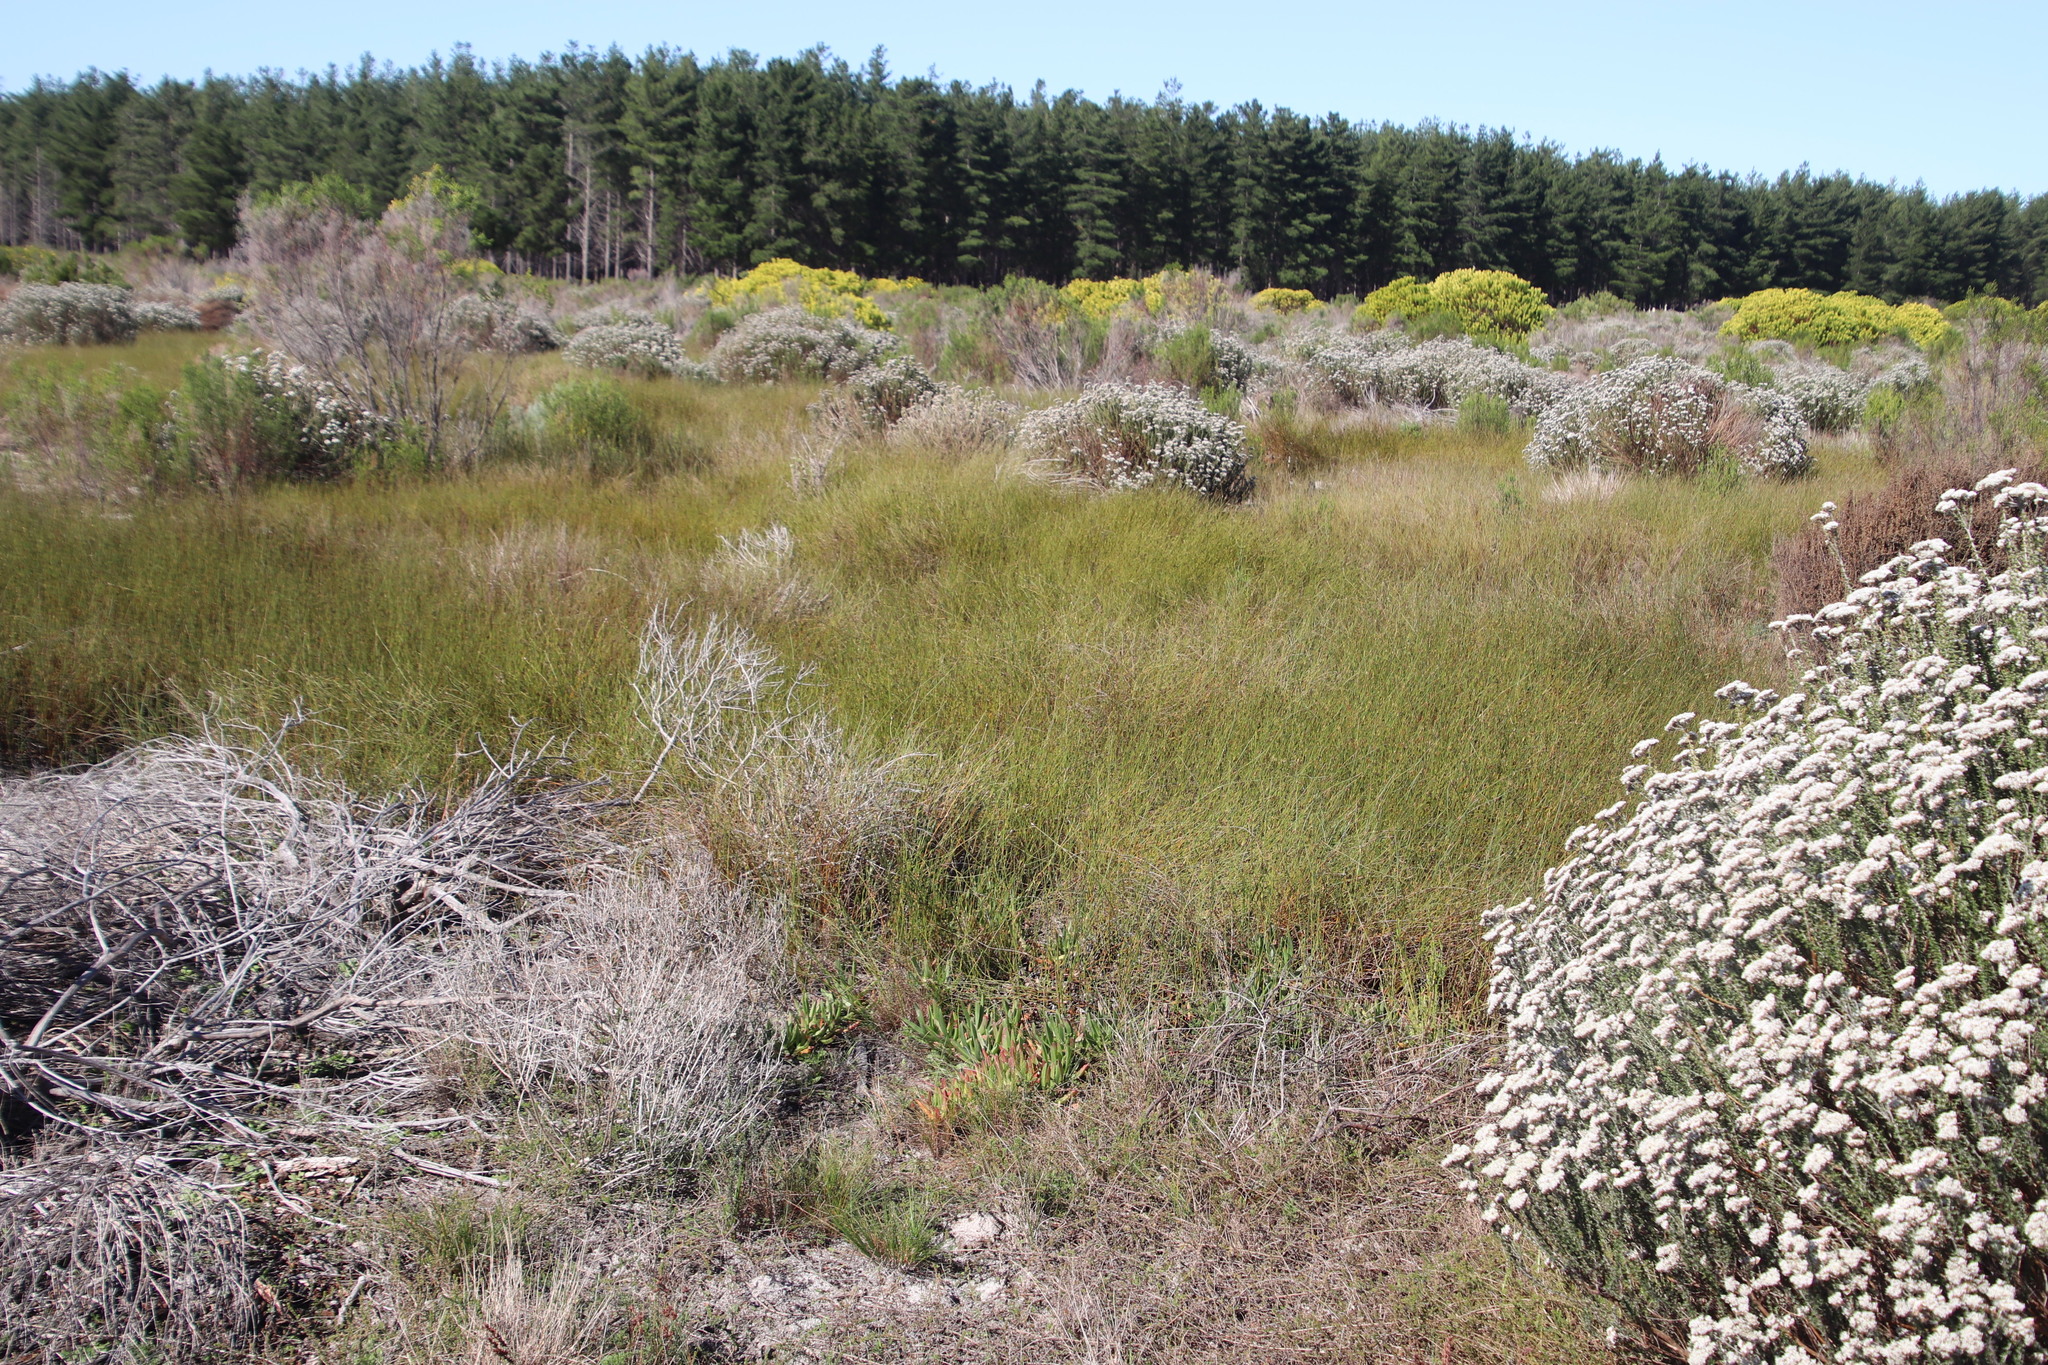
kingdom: Plantae
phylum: Tracheophyta
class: Liliopsida
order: Poales
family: Restionaceae
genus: Willdenowia
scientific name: Willdenowia sulcata
